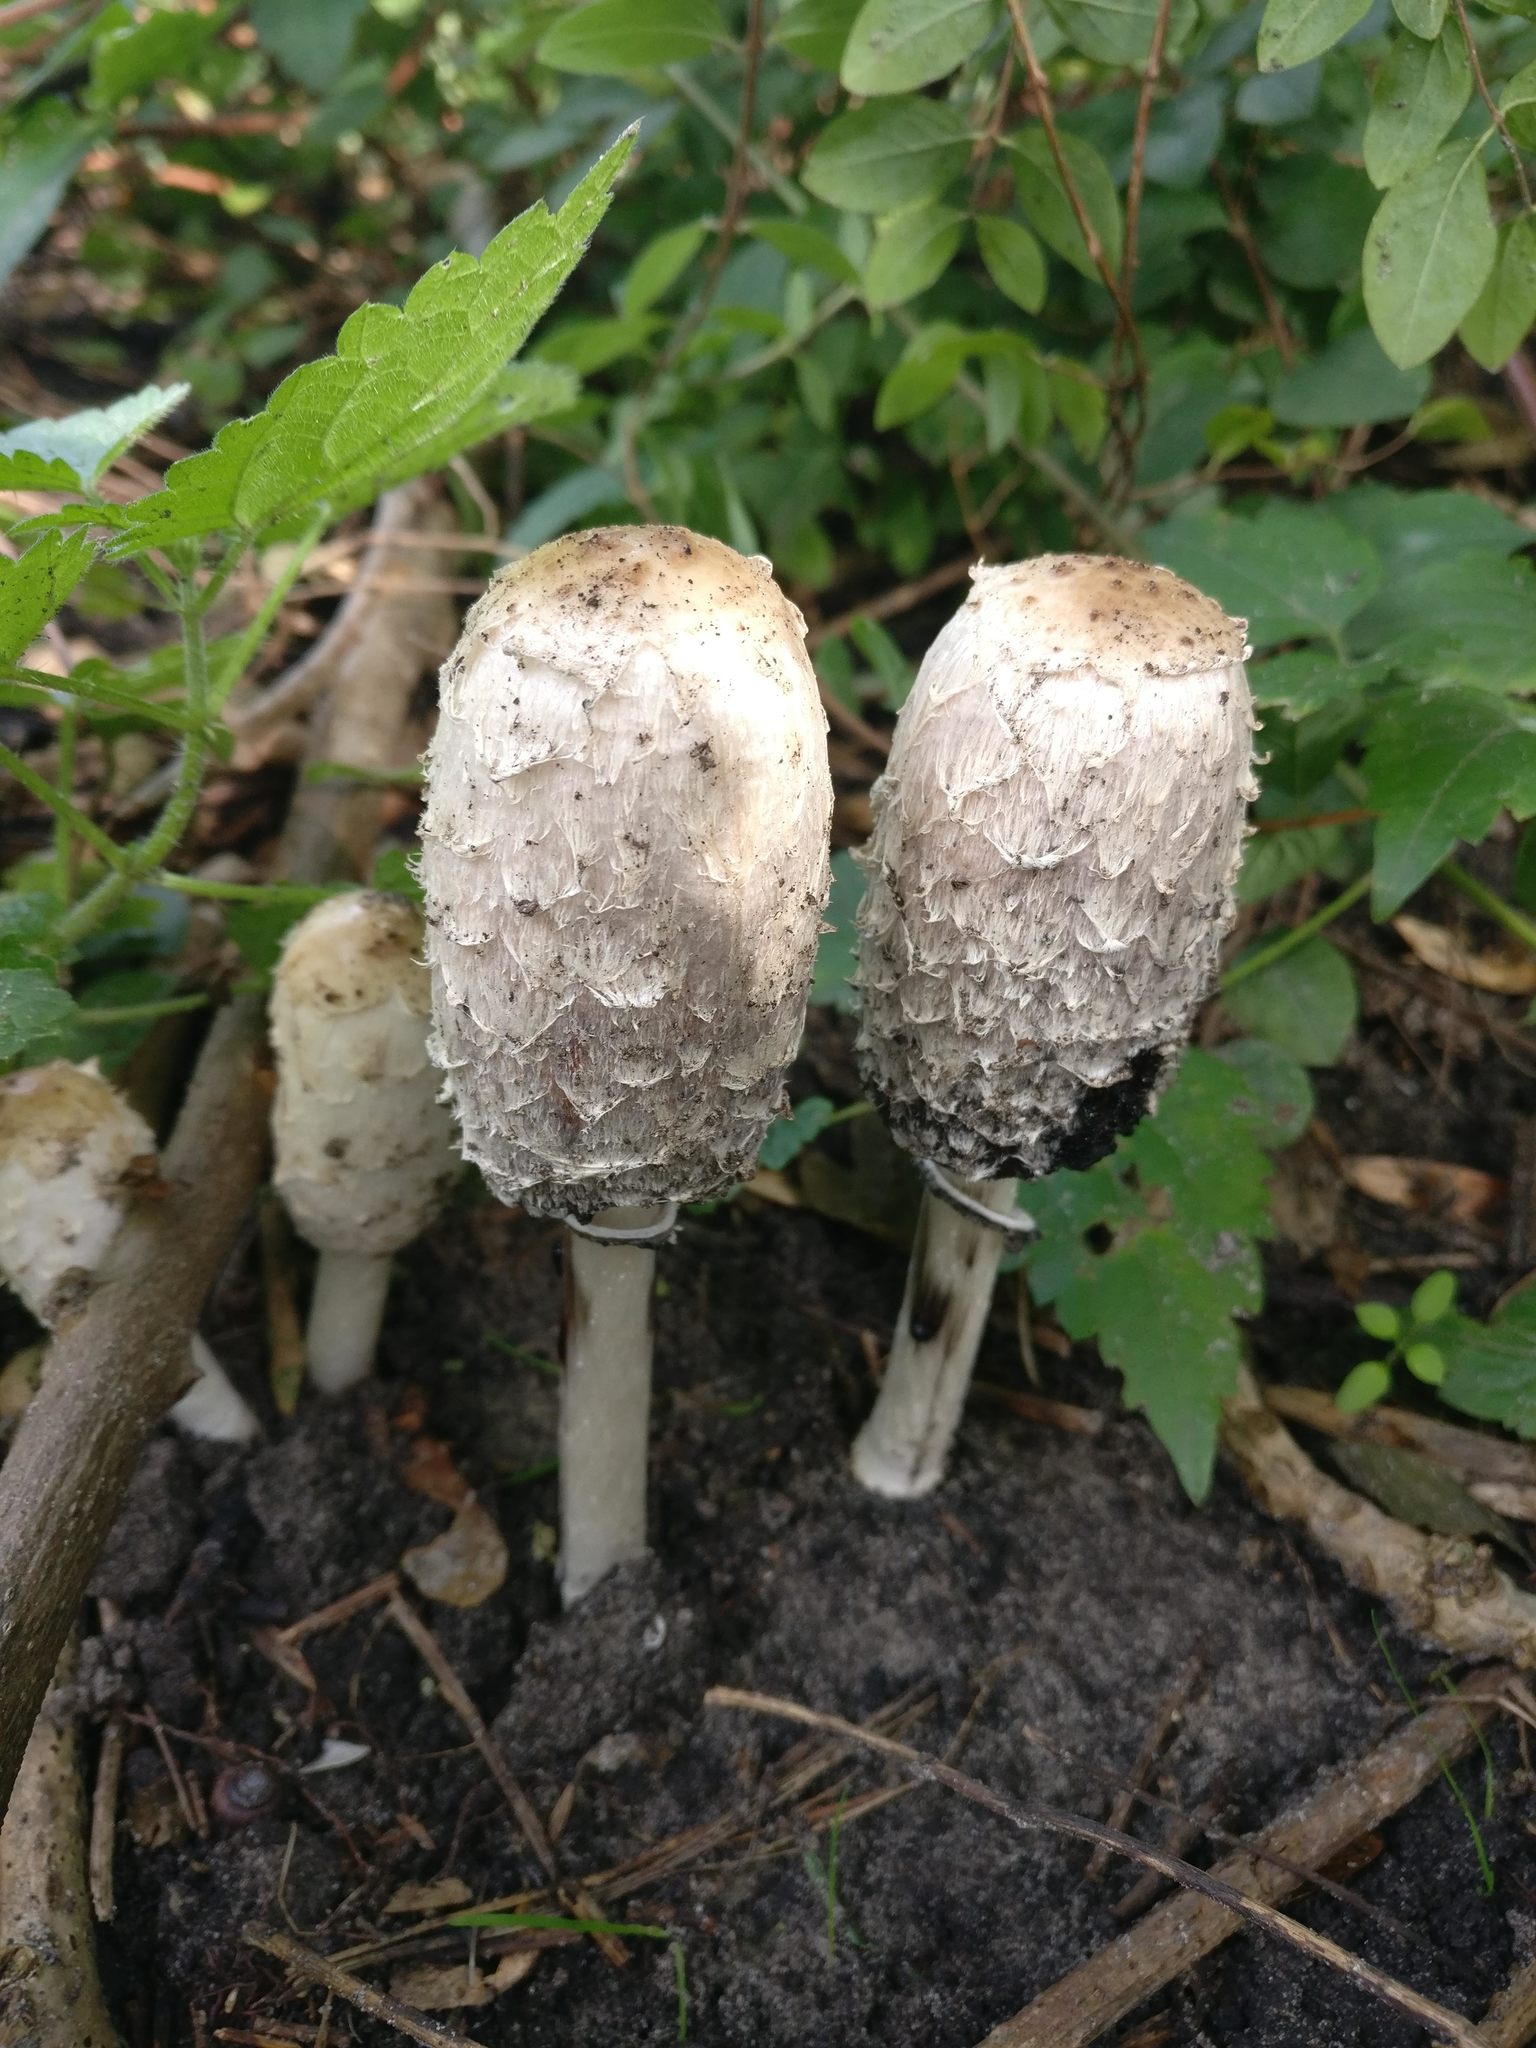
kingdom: Fungi
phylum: Basidiomycota
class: Agaricomycetes
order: Agaricales
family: Agaricaceae
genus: Coprinus
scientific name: Coprinus comatus
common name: Lawyer's wig
